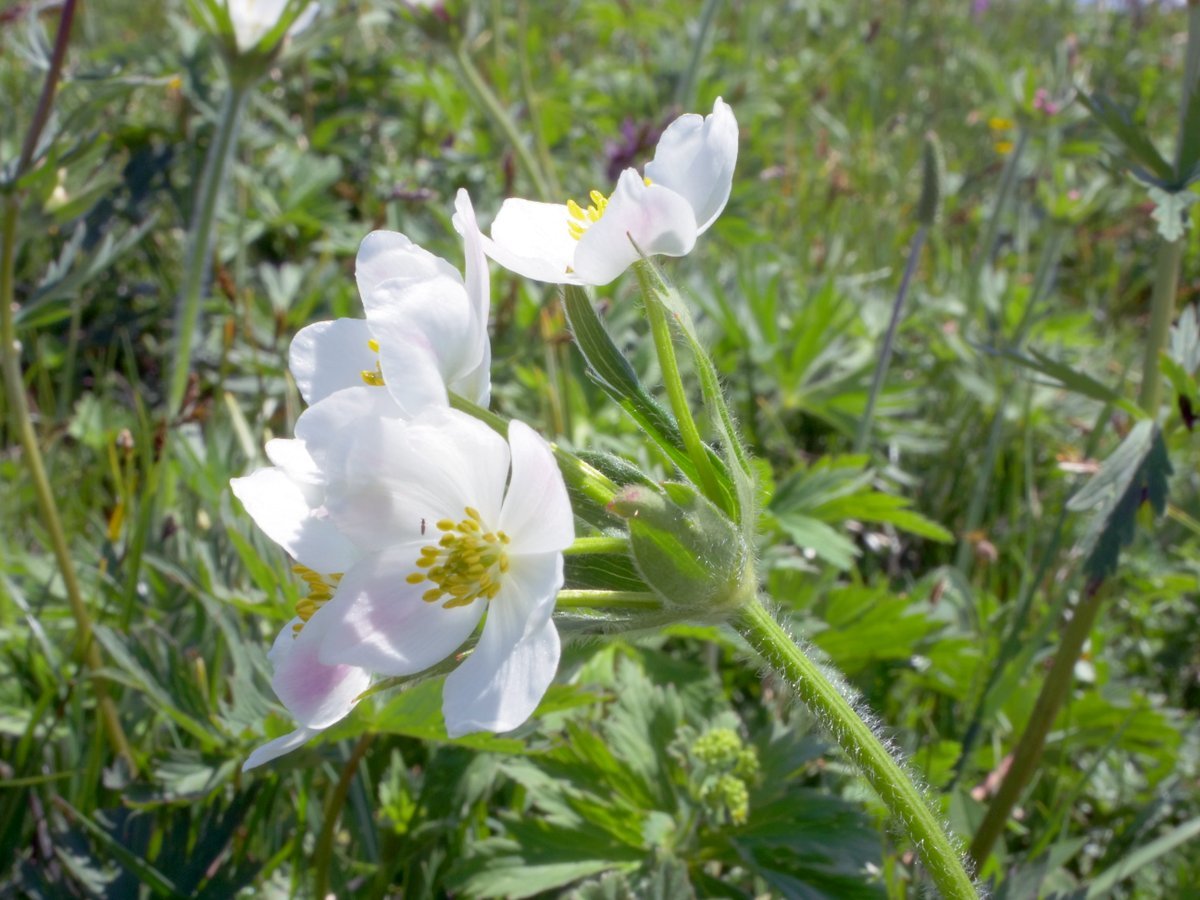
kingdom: Plantae
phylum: Tracheophyta
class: Magnoliopsida
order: Ranunculales
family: Ranunculaceae
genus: Anemonastrum
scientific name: Anemonastrum narcissiflorum
